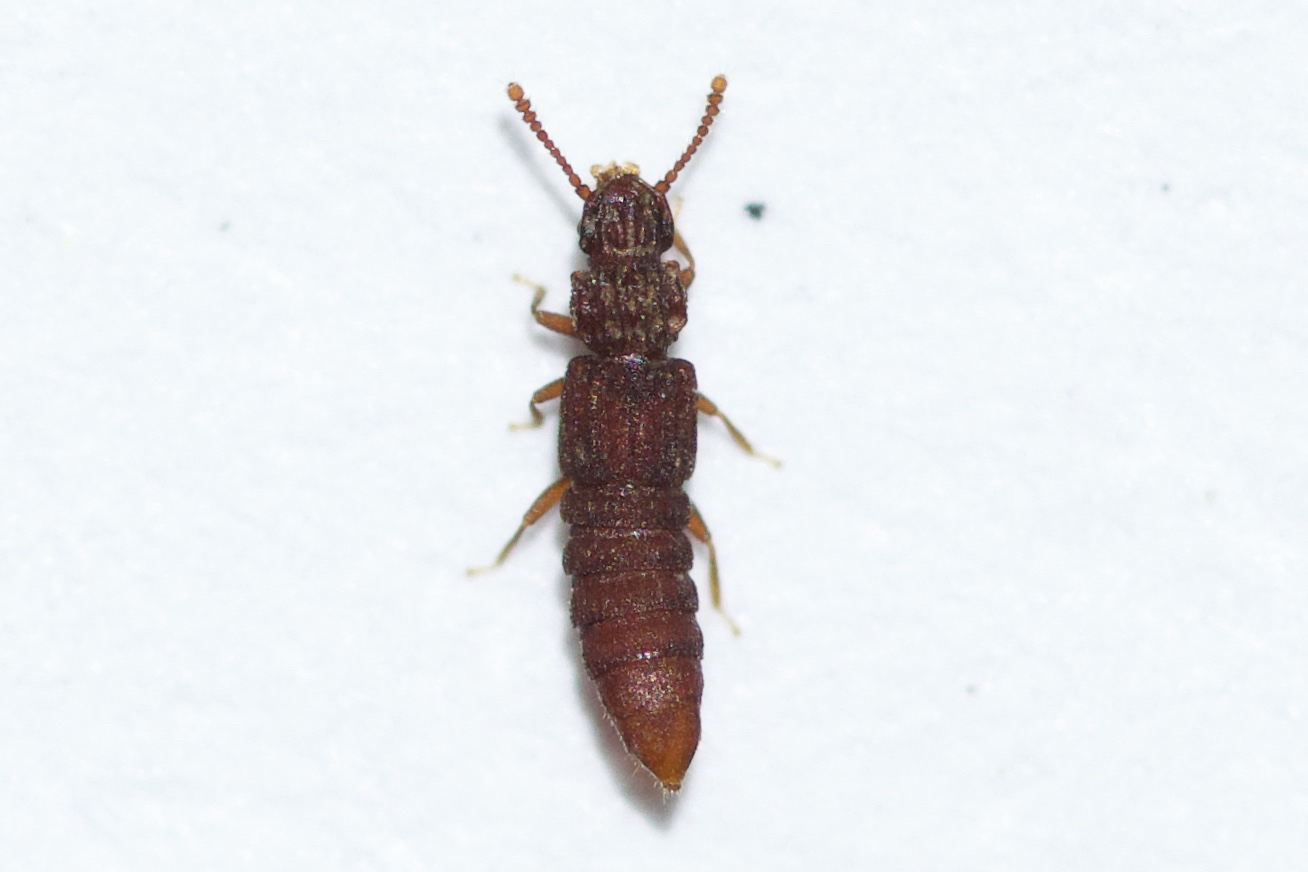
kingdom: Animalia
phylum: Arthropoda
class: Insecta
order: Coleoptera
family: Staphylinidae
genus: Thoracophorus
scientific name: Thoracophorus costalis
